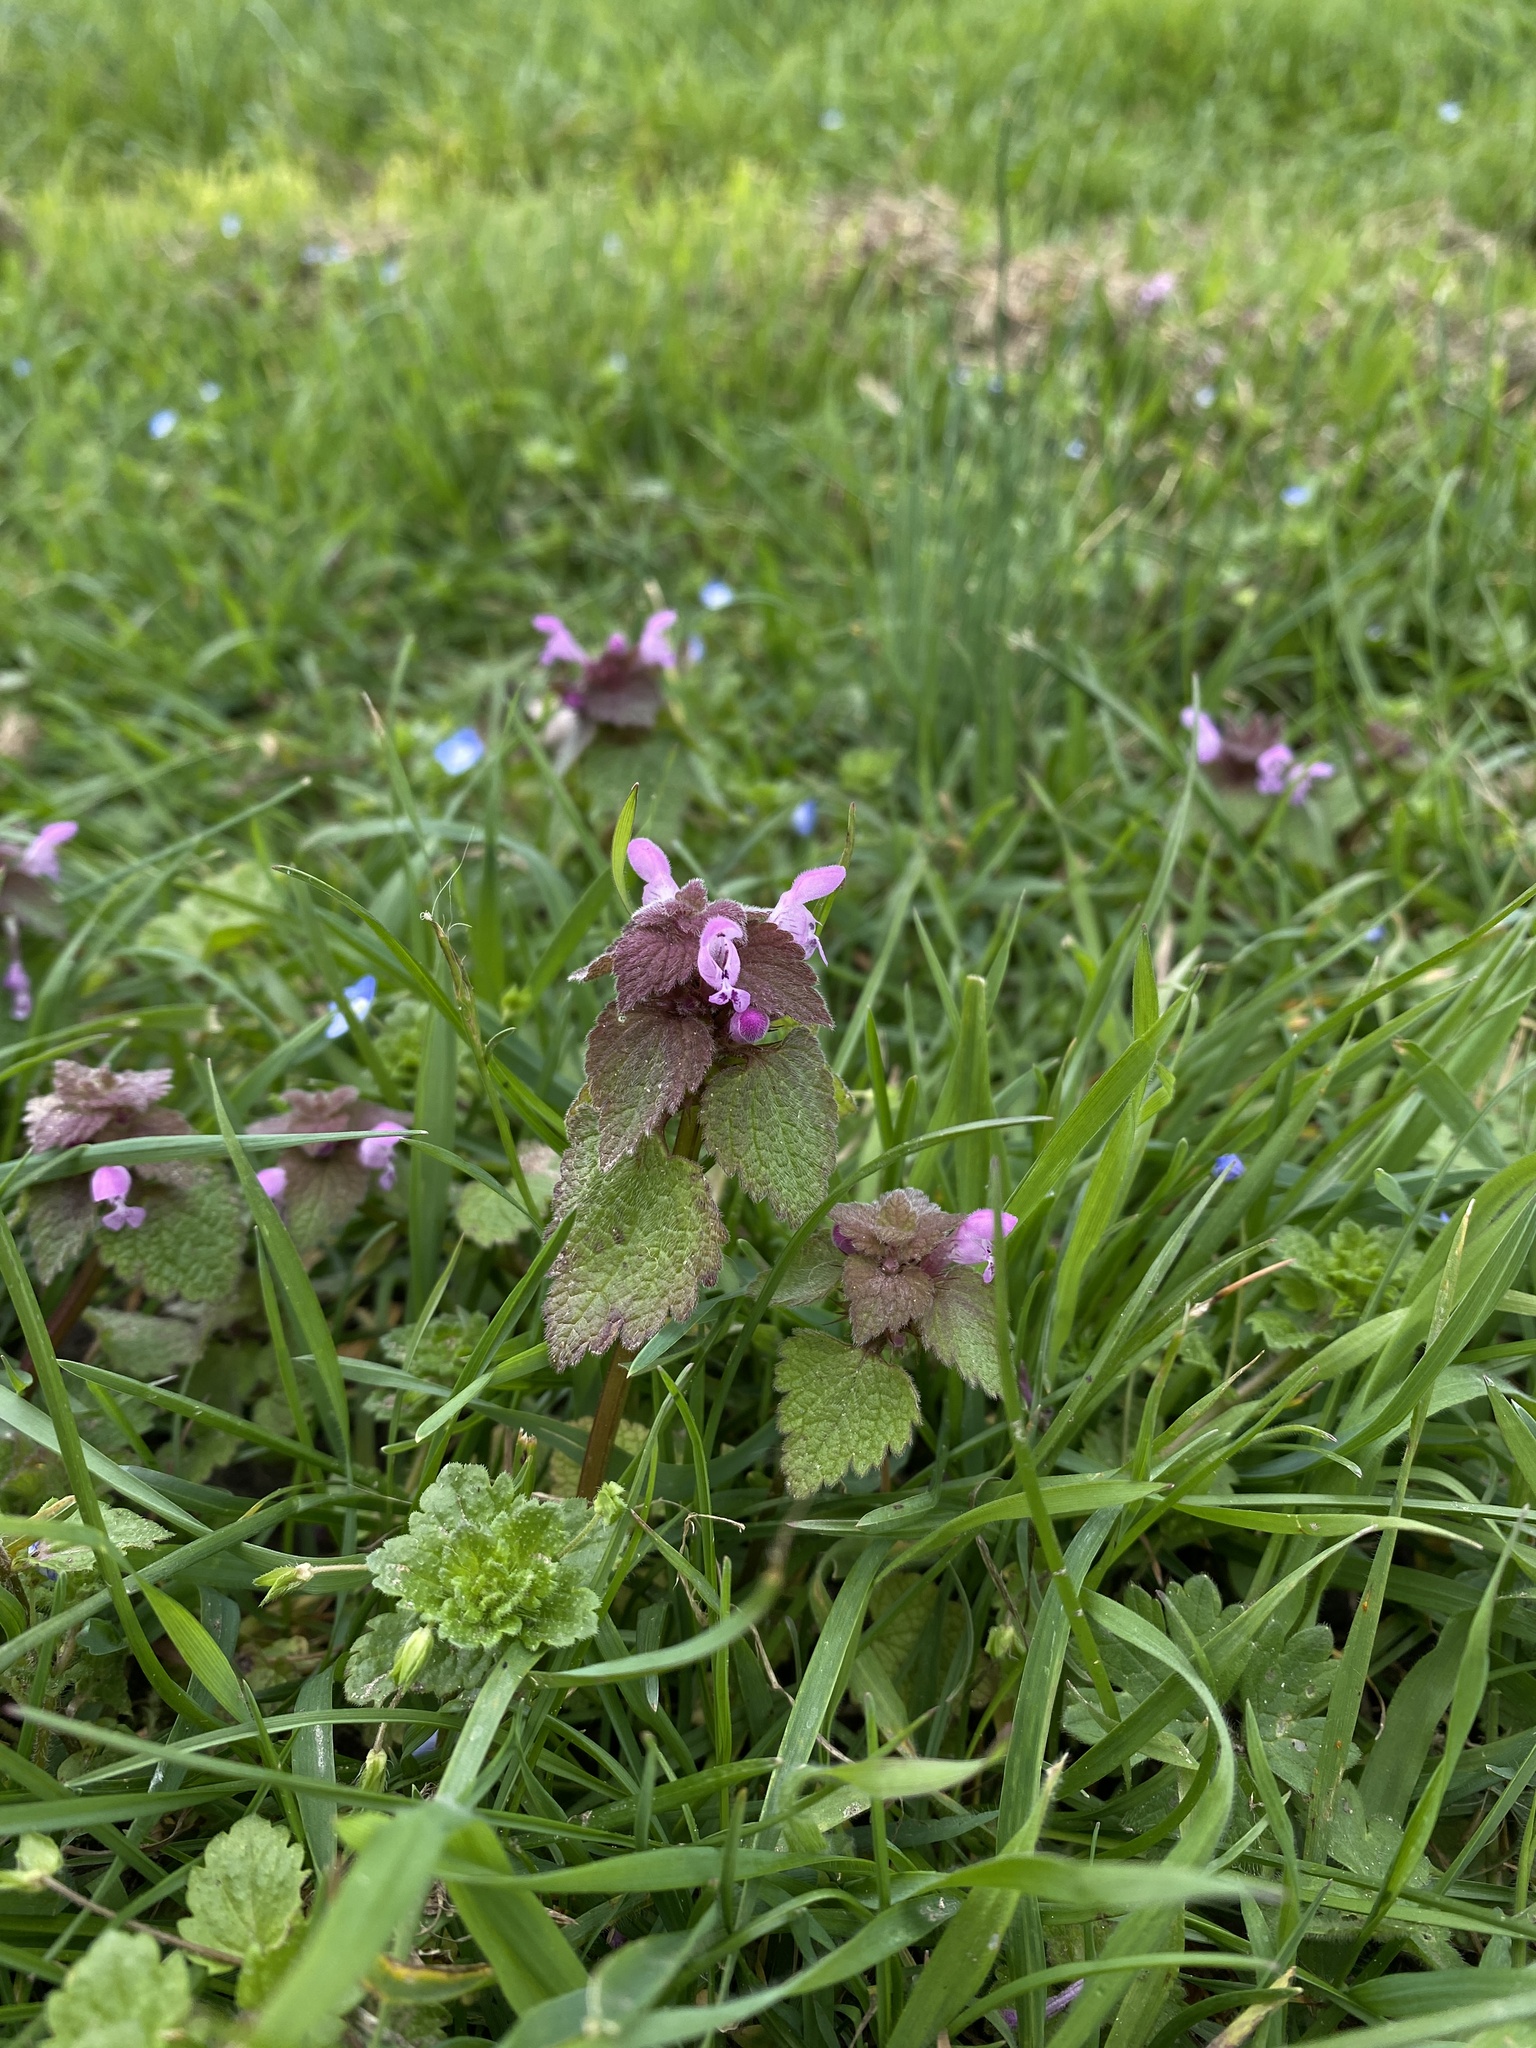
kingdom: Plantae
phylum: Tracheophyta
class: Magnoliopsida
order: Lamiales
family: Lamiaceae
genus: Lamium
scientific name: Lamium purpureum
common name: Red dead-nettle
